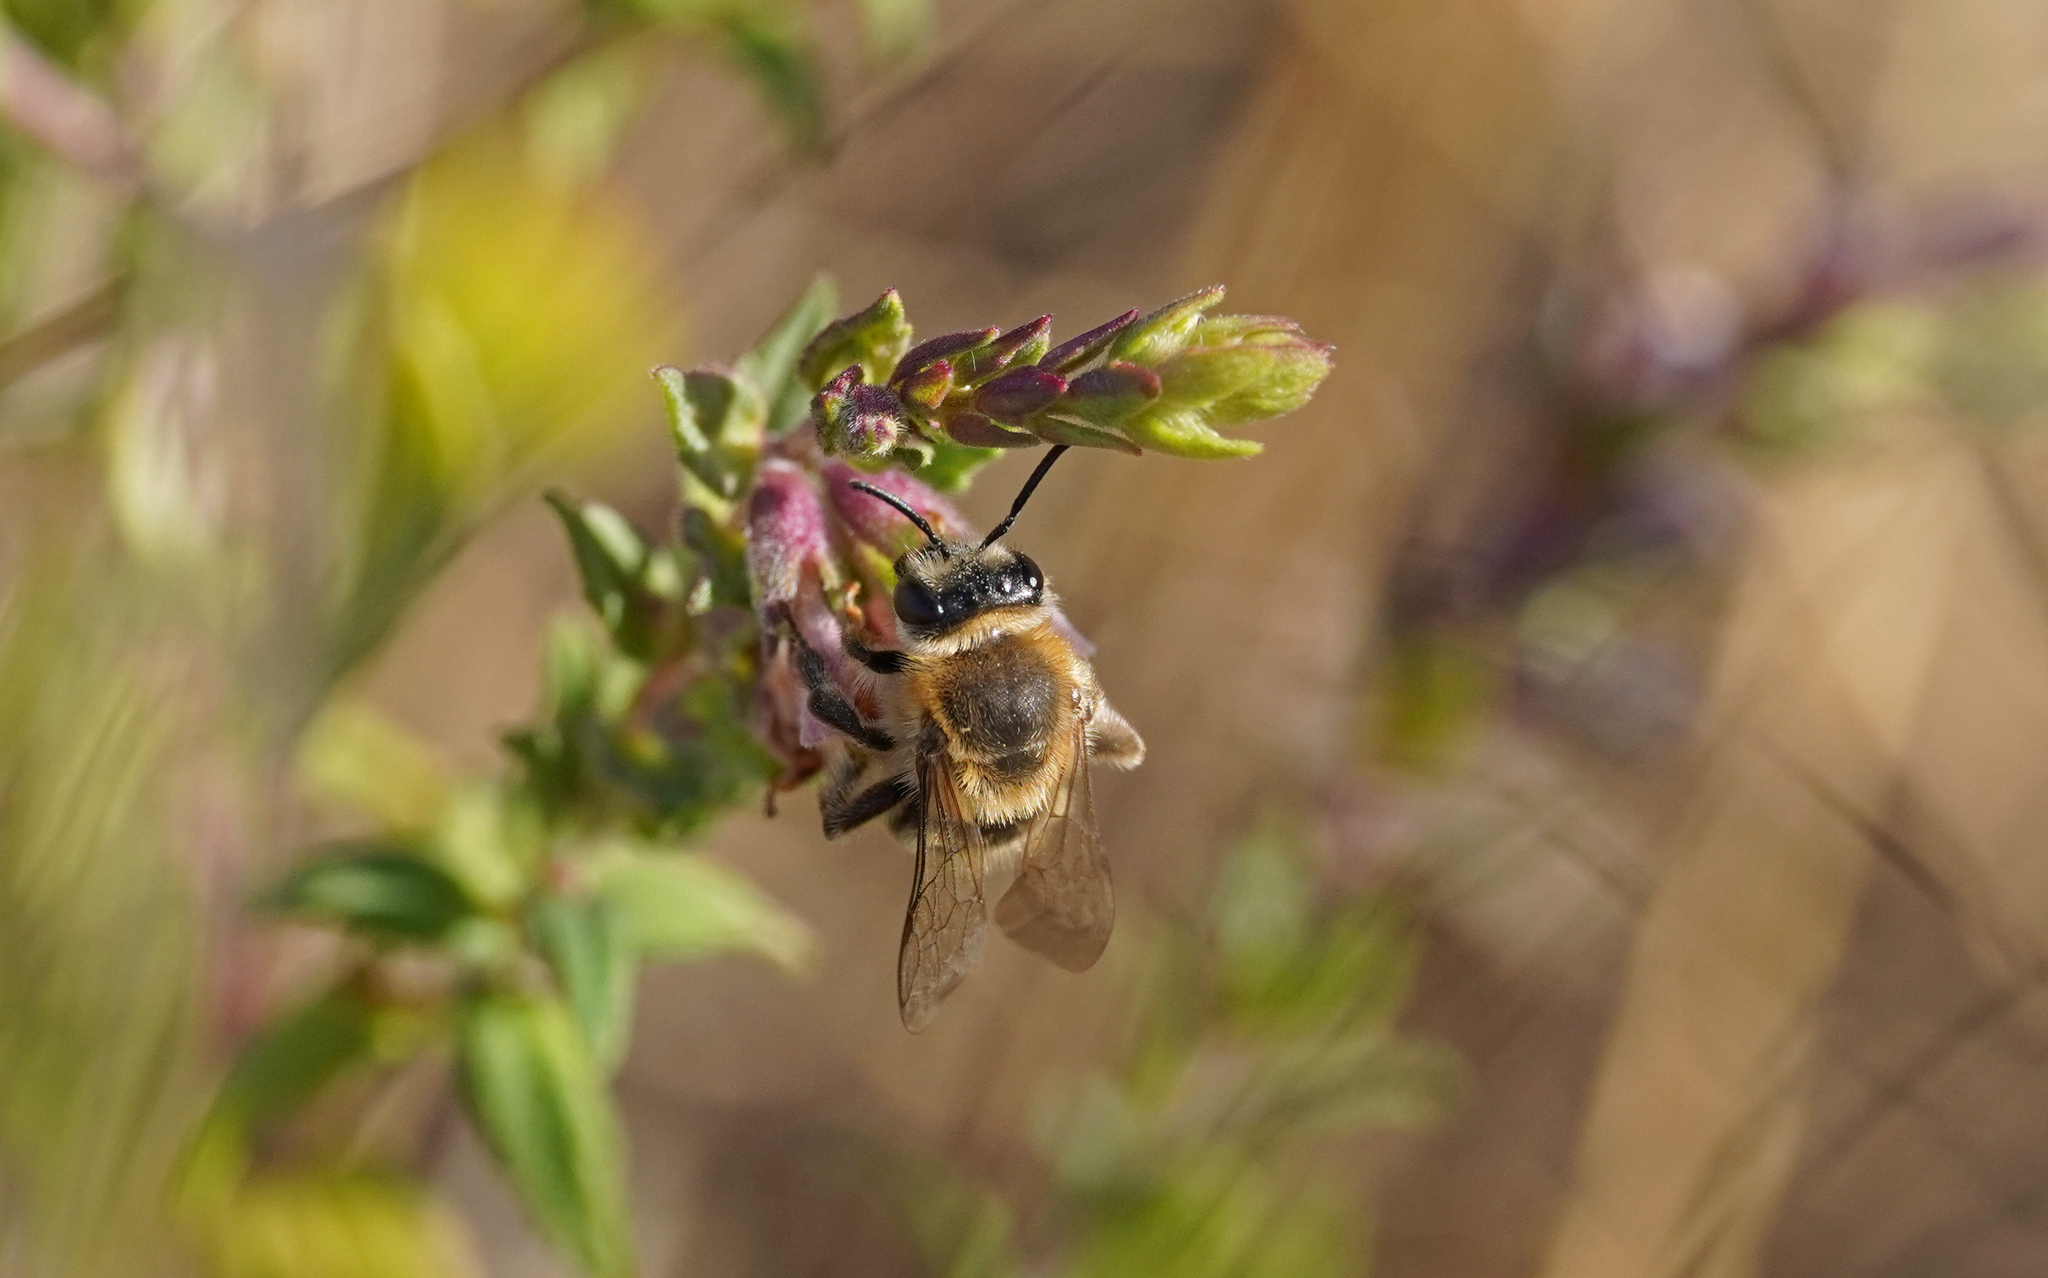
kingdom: Animalia
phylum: Arthropoda
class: Insecta
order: Hymenoptera
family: Melittidae
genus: Melitta
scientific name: Melitta tricincta
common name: Red bartsia bee
